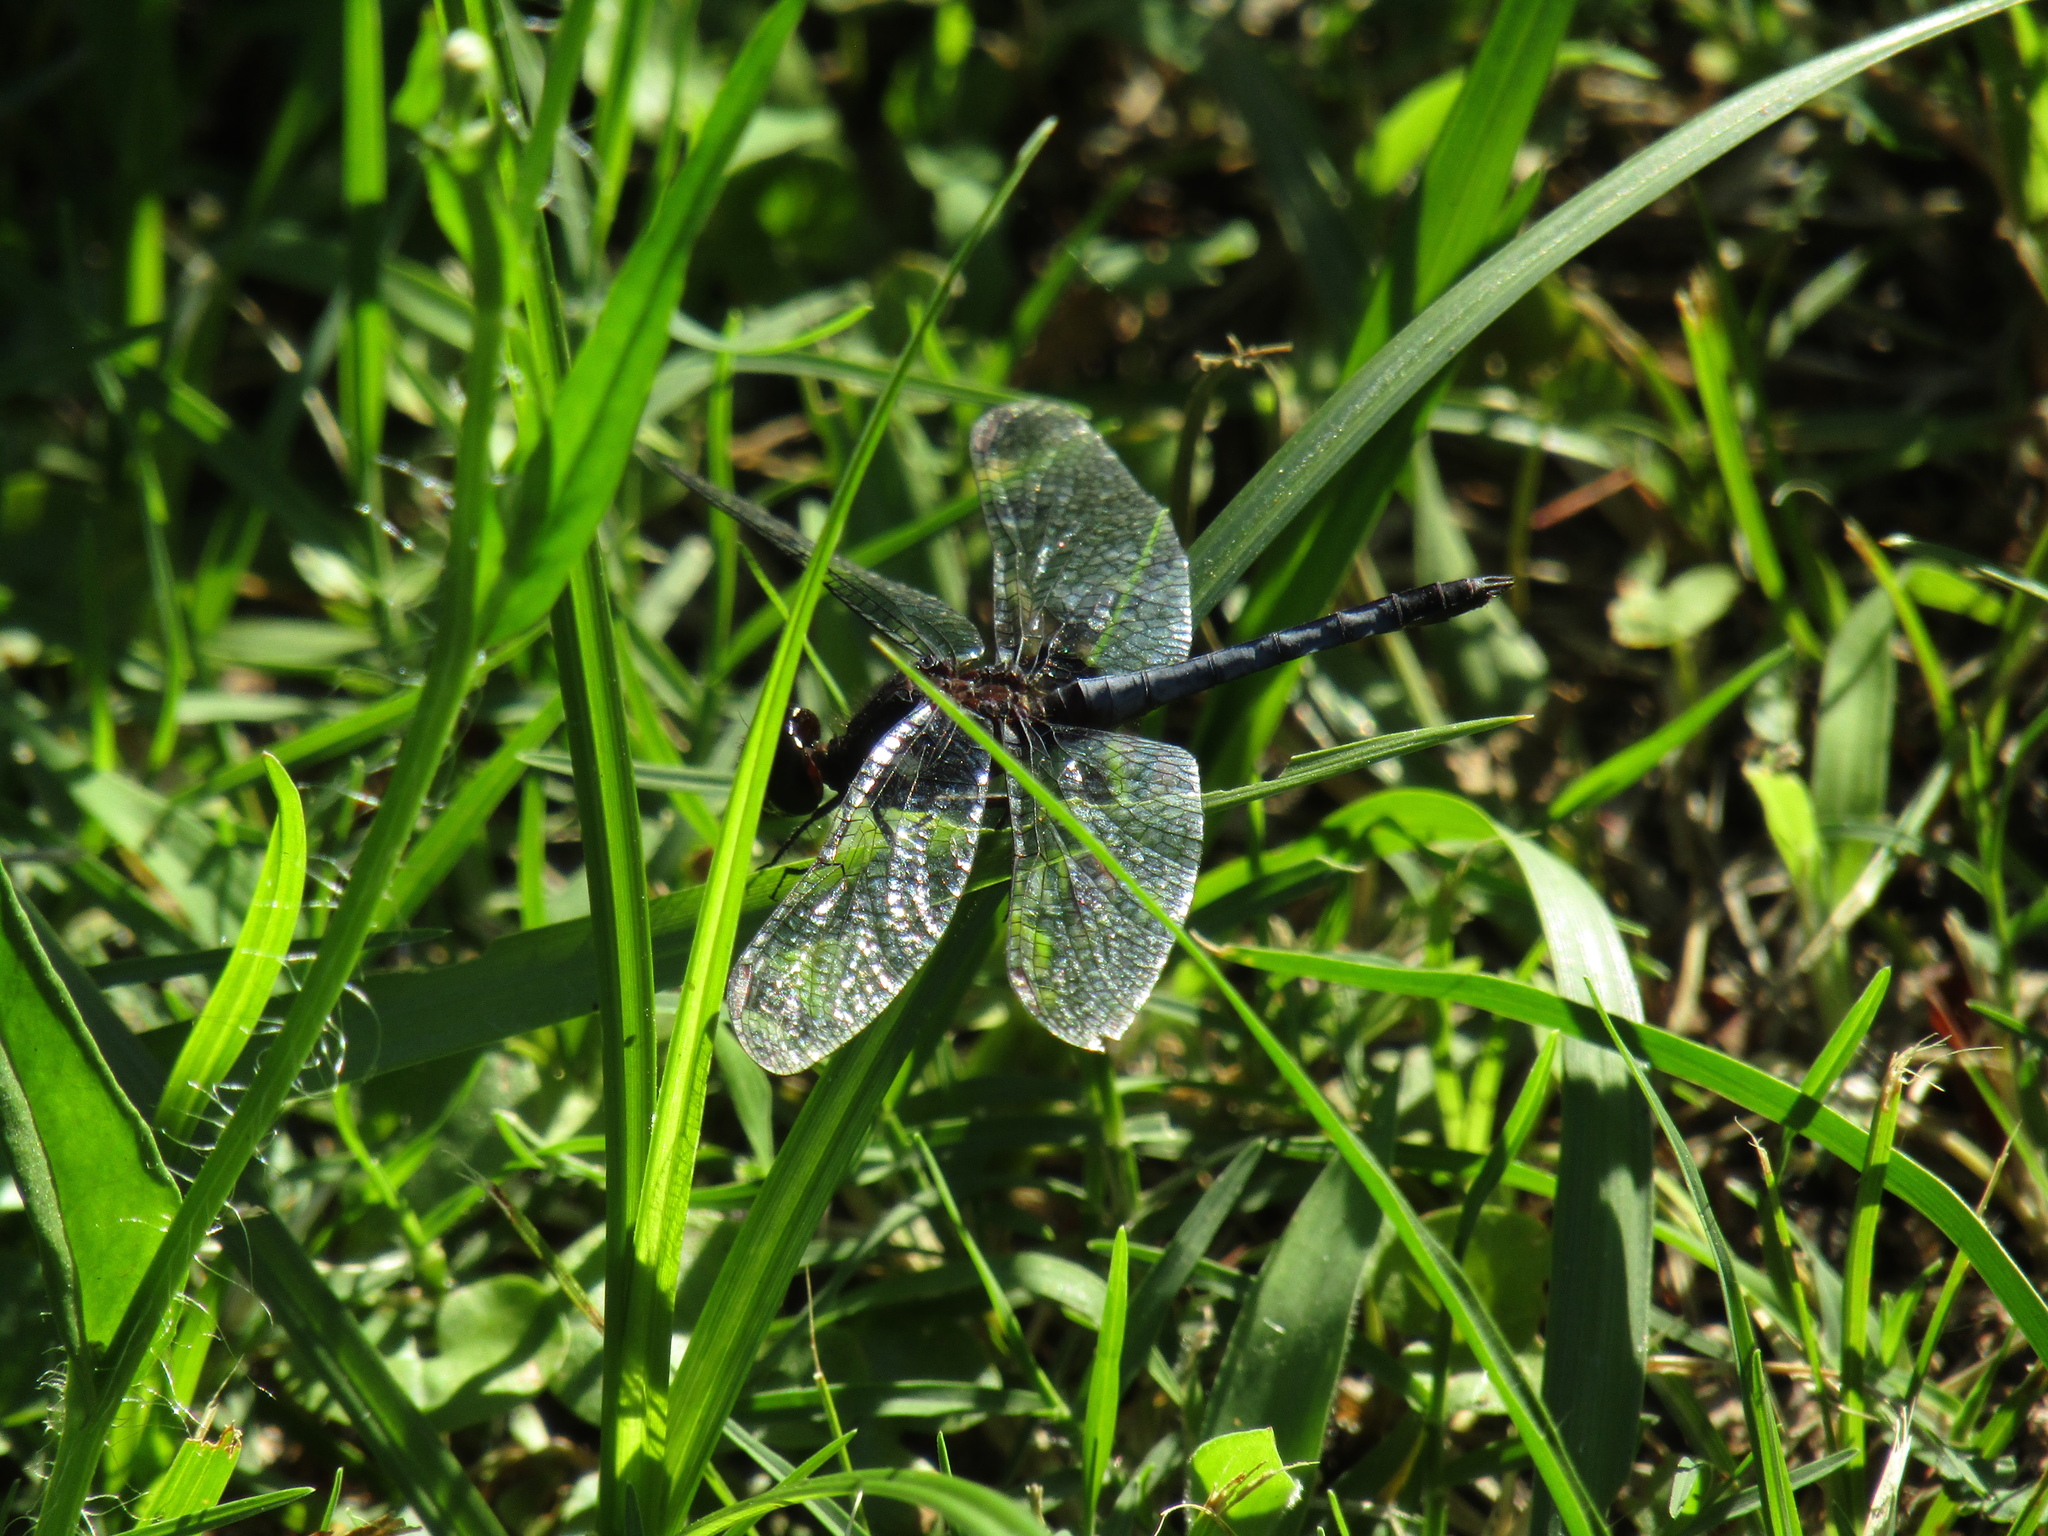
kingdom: Animalia
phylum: Arthropoda
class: Insecta
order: Odonata
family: Libellulidae
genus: Erythrodiplax
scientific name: Erythrodiplax media
